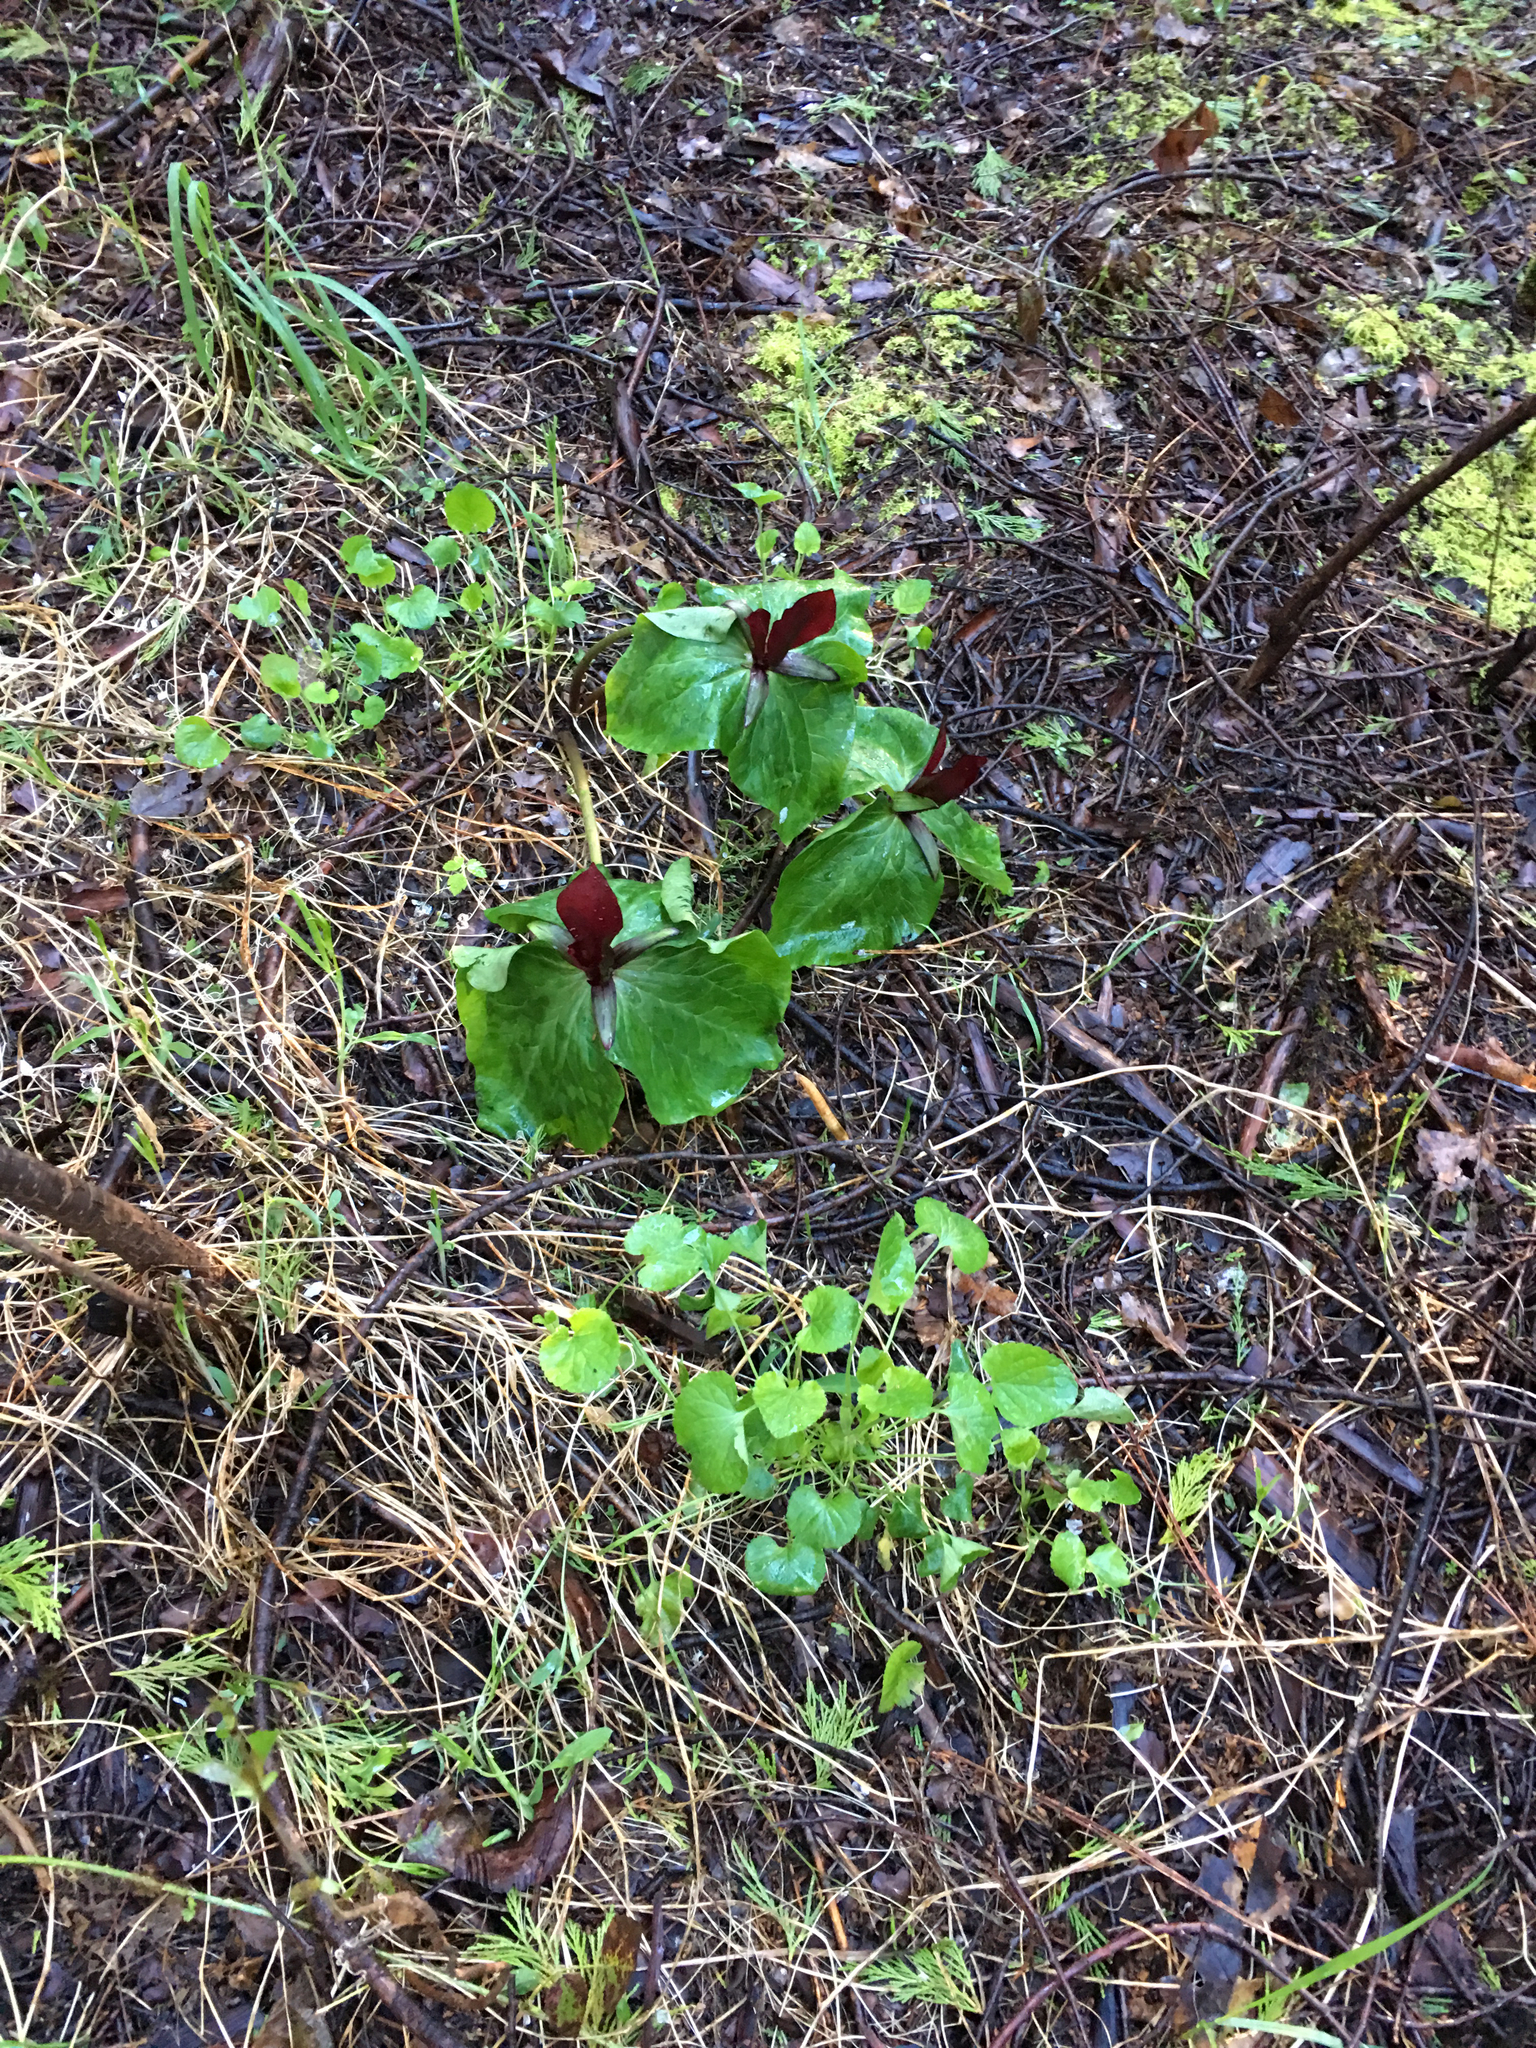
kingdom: Plantae
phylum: Tracheophyta
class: Liliopsida
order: Liliales
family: Melanthiaceae
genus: Trillium
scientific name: Trillium kurabayashii
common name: Giant purple trillium
